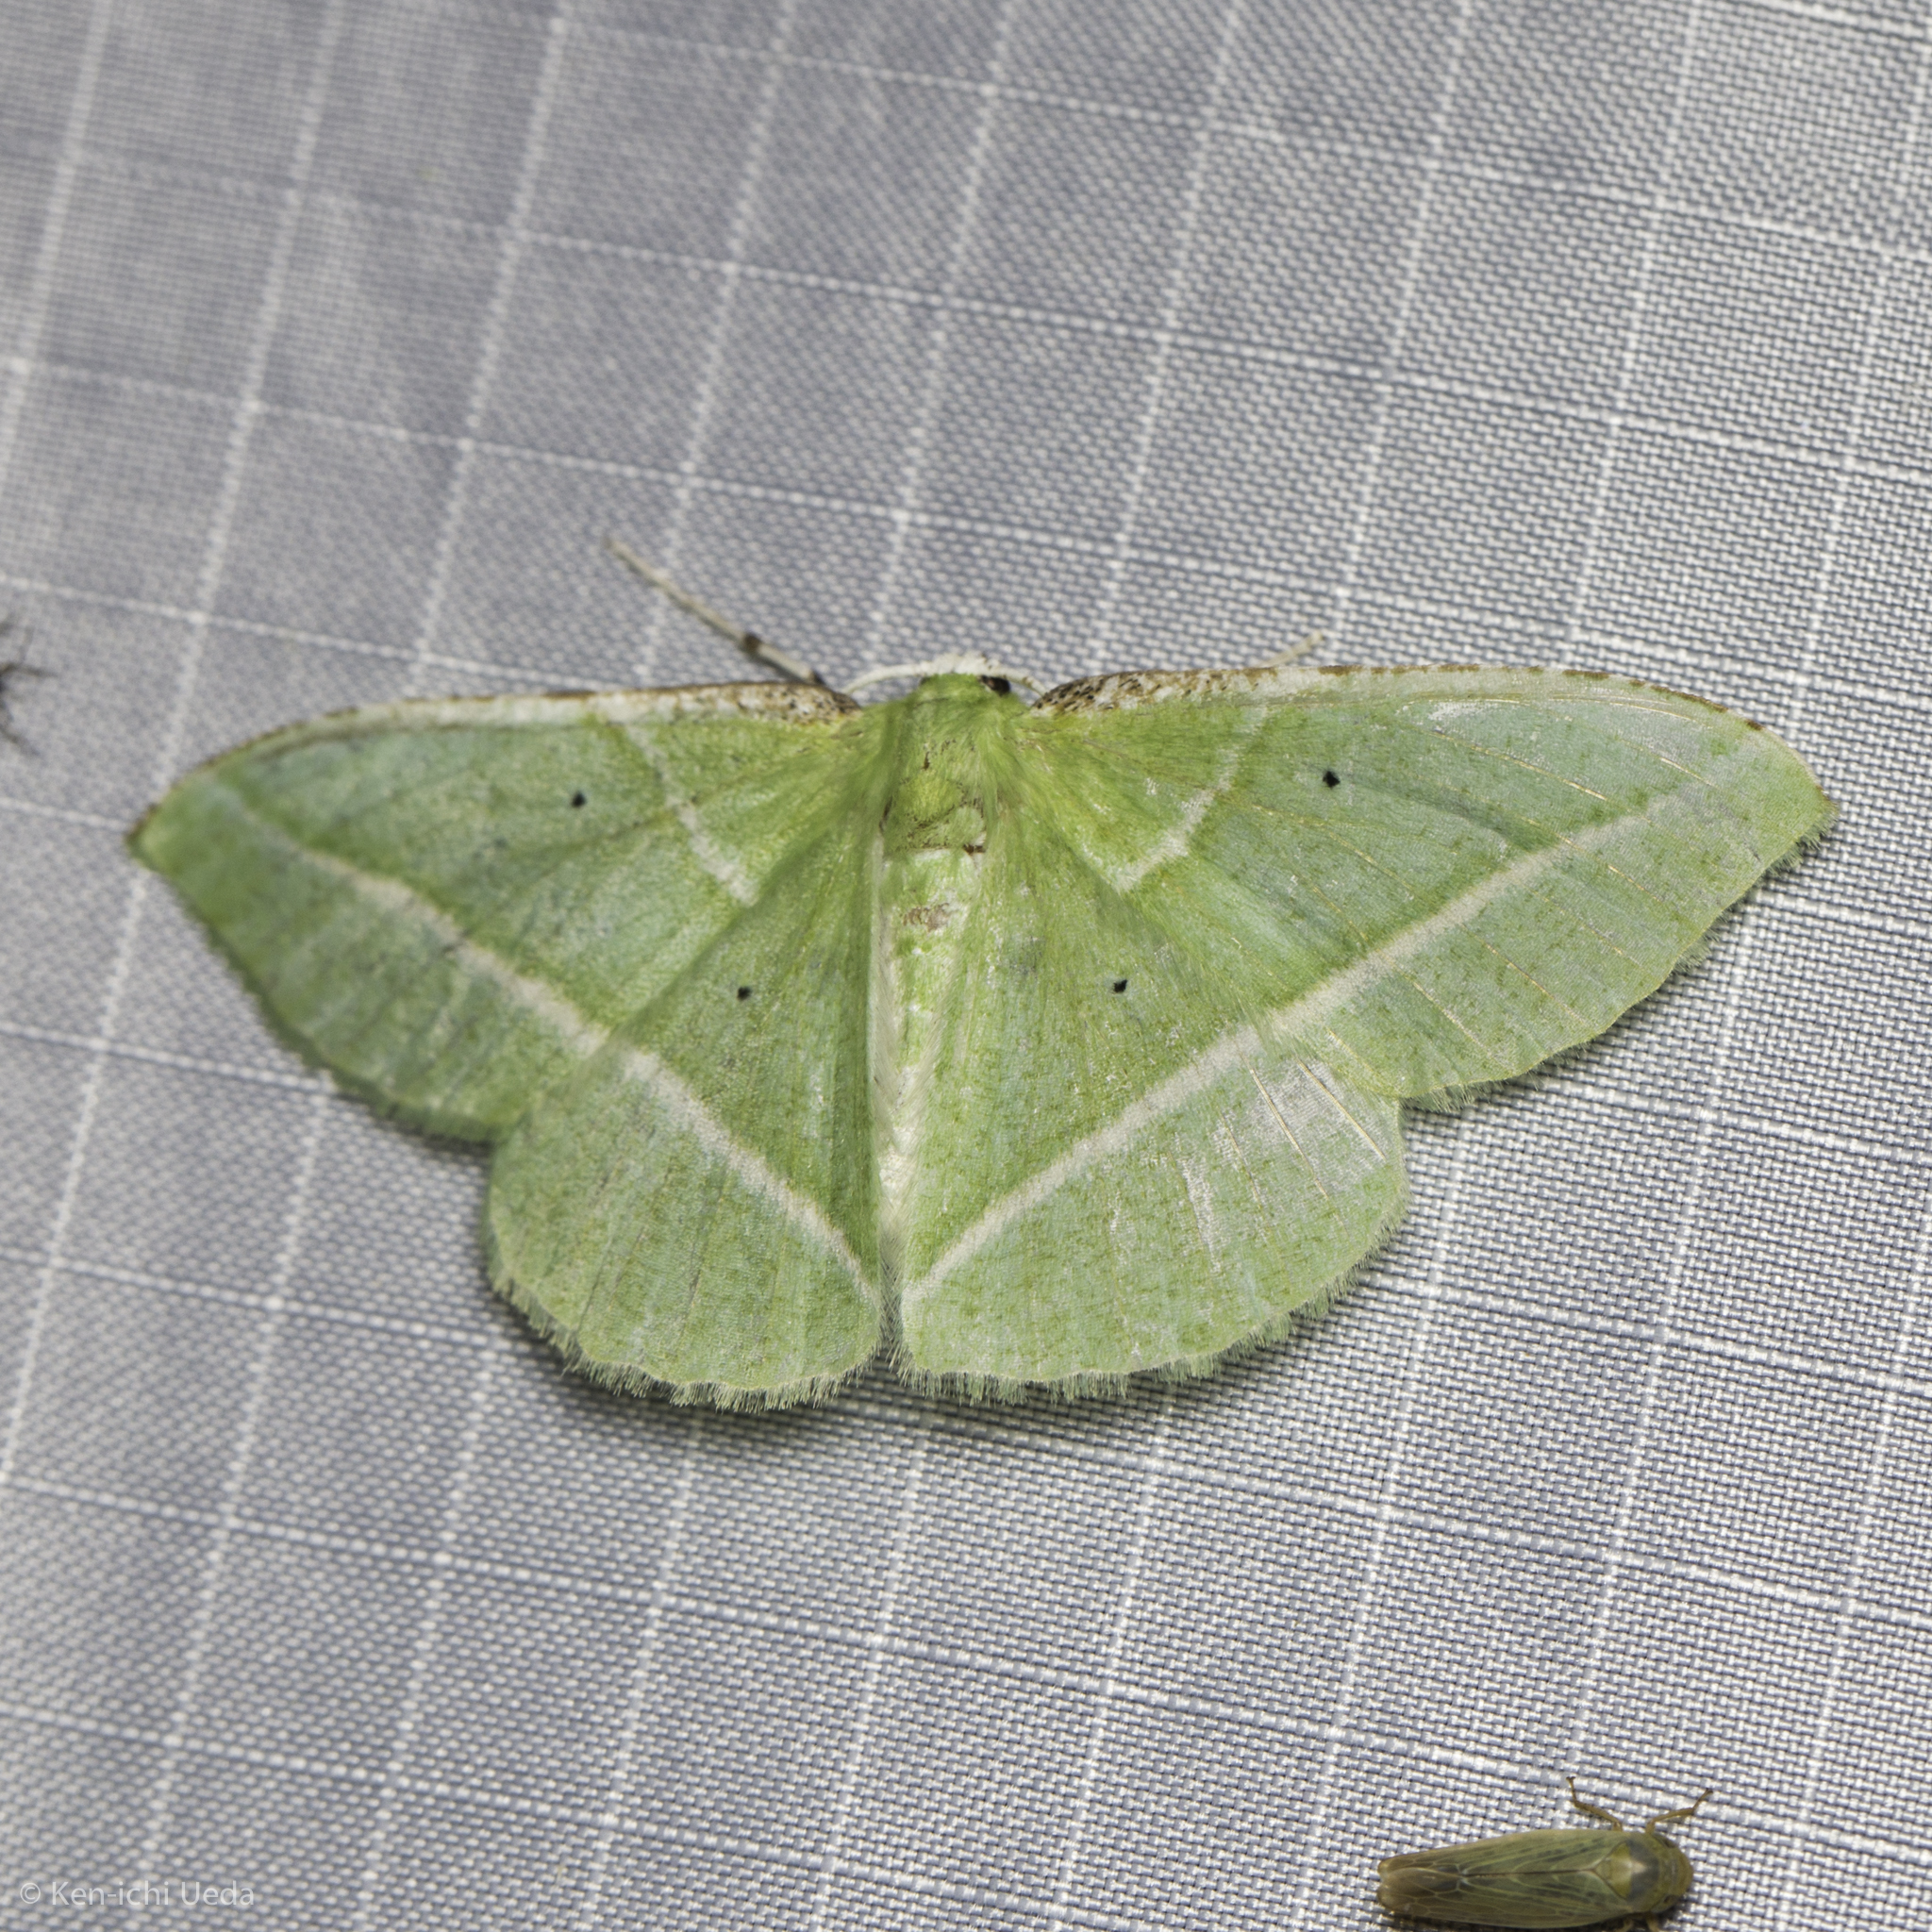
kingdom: Animalia
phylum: Arthropoda
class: Insecta
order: Lepidoptera
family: Geometridae
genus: Dichorda
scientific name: Dichorda illustraria
